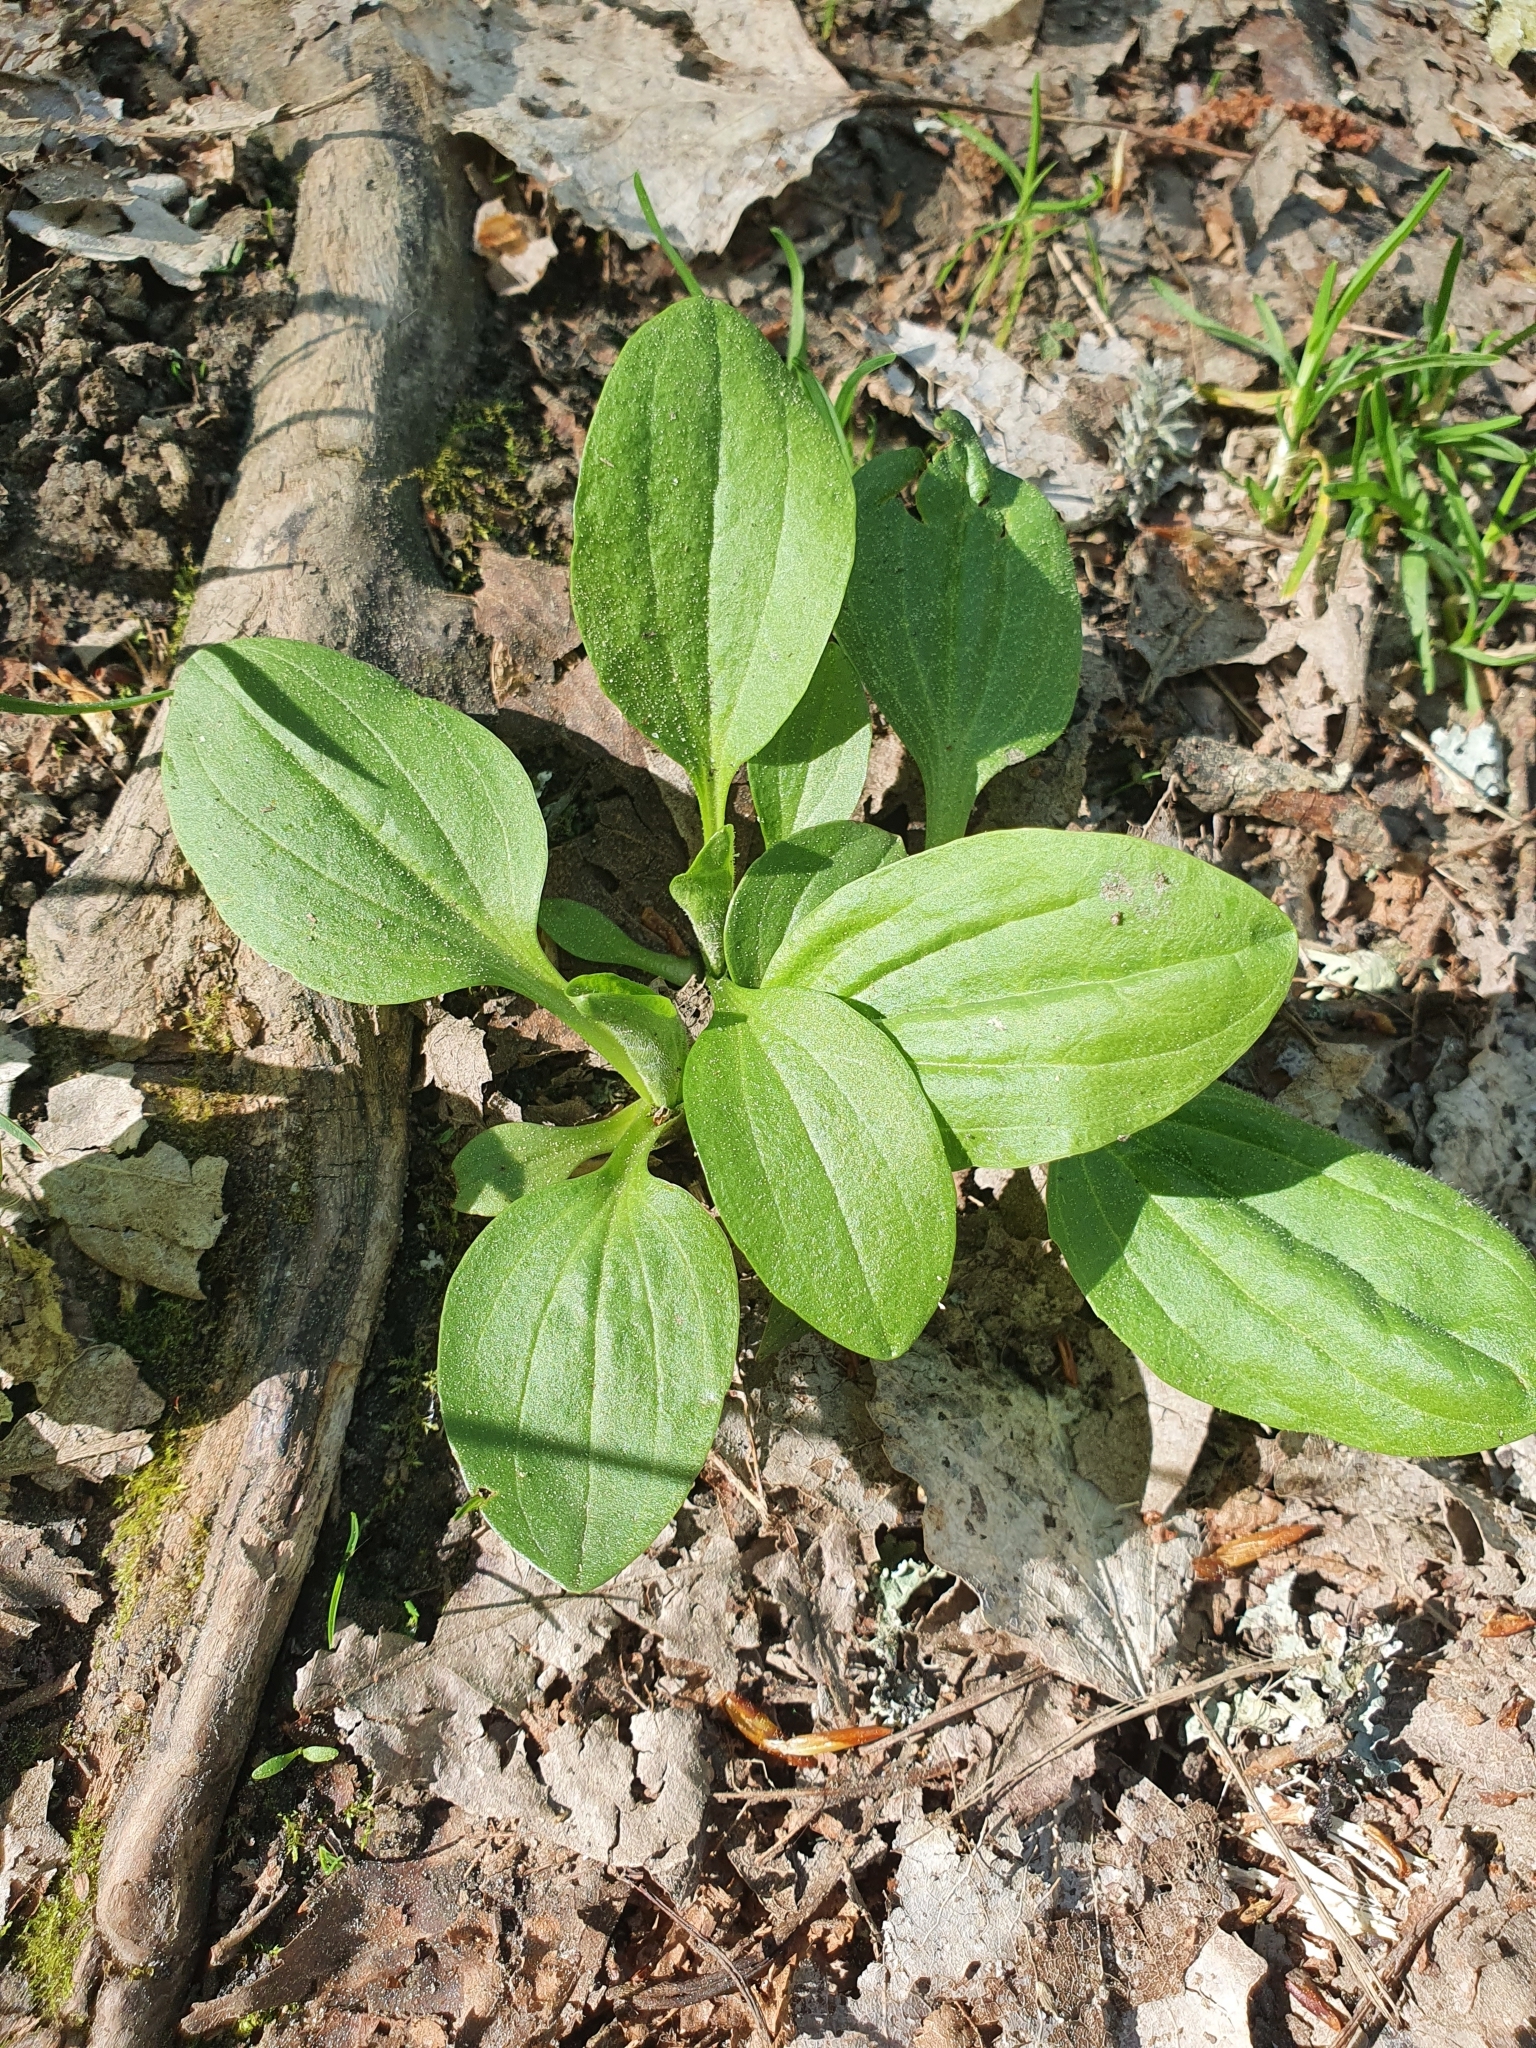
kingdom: Plantae
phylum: Tracheophyta
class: Magnoliopsida
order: Lamiales
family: Plantaginaceae
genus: Plantago
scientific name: Plantago major
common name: Common plantain
